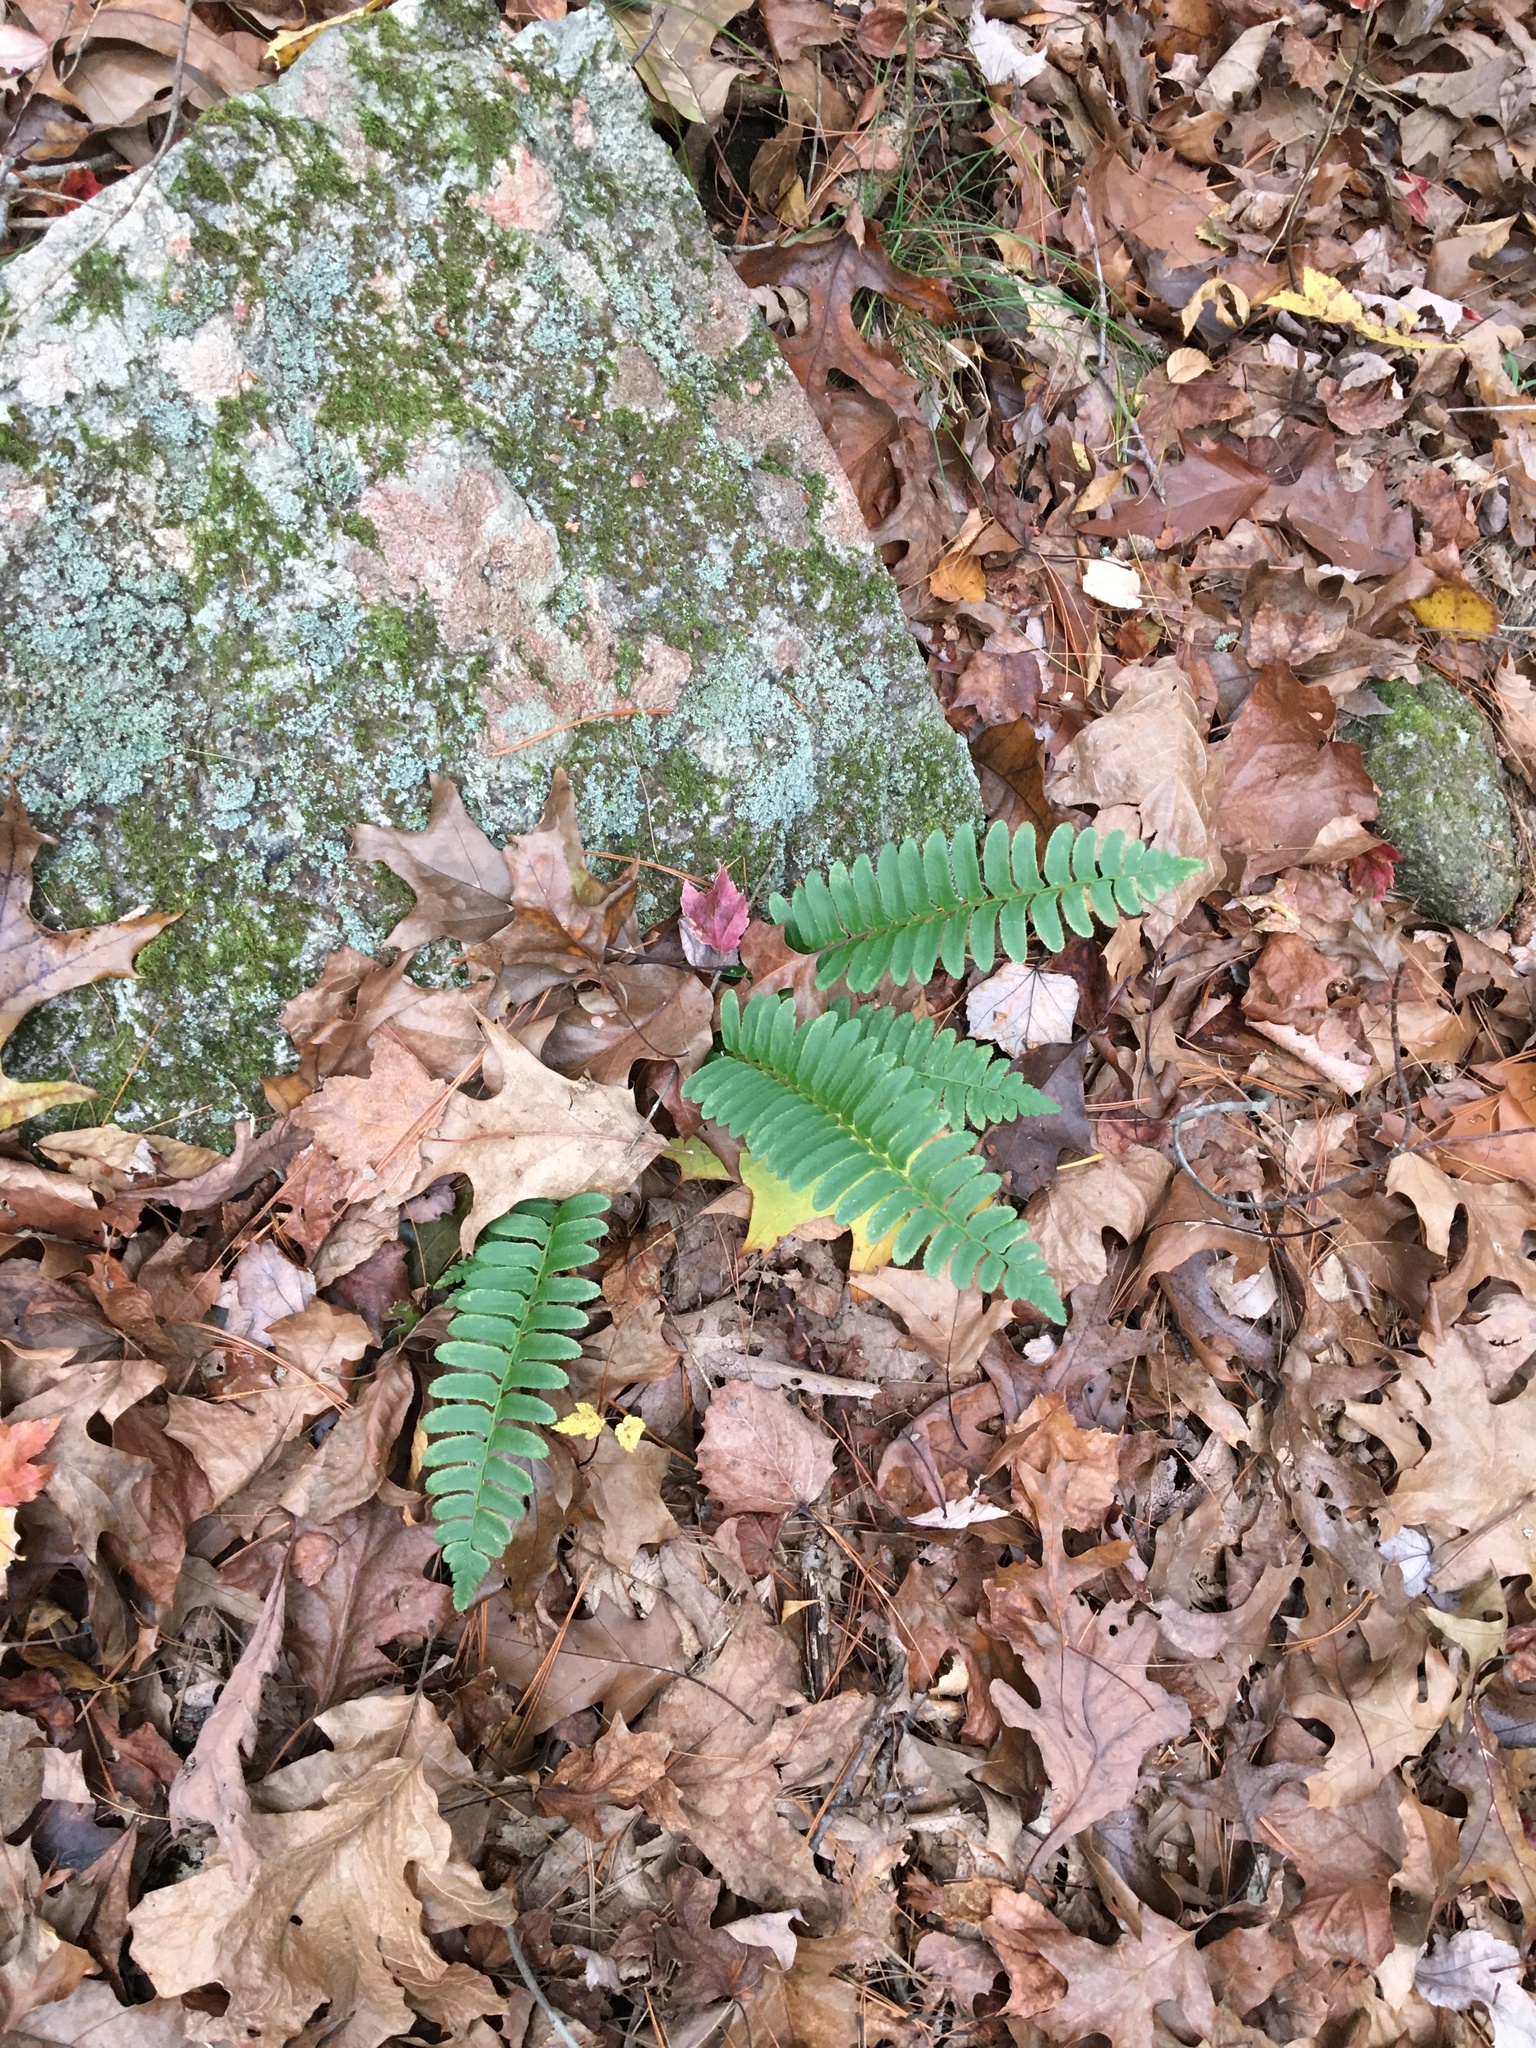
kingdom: Plantae
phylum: Tracheophyta
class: Polypodiopsida
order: Polypodiales
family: Dryopteridaceae
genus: Polystichum
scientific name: Polystichum acrostichoides
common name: Christmas fern
